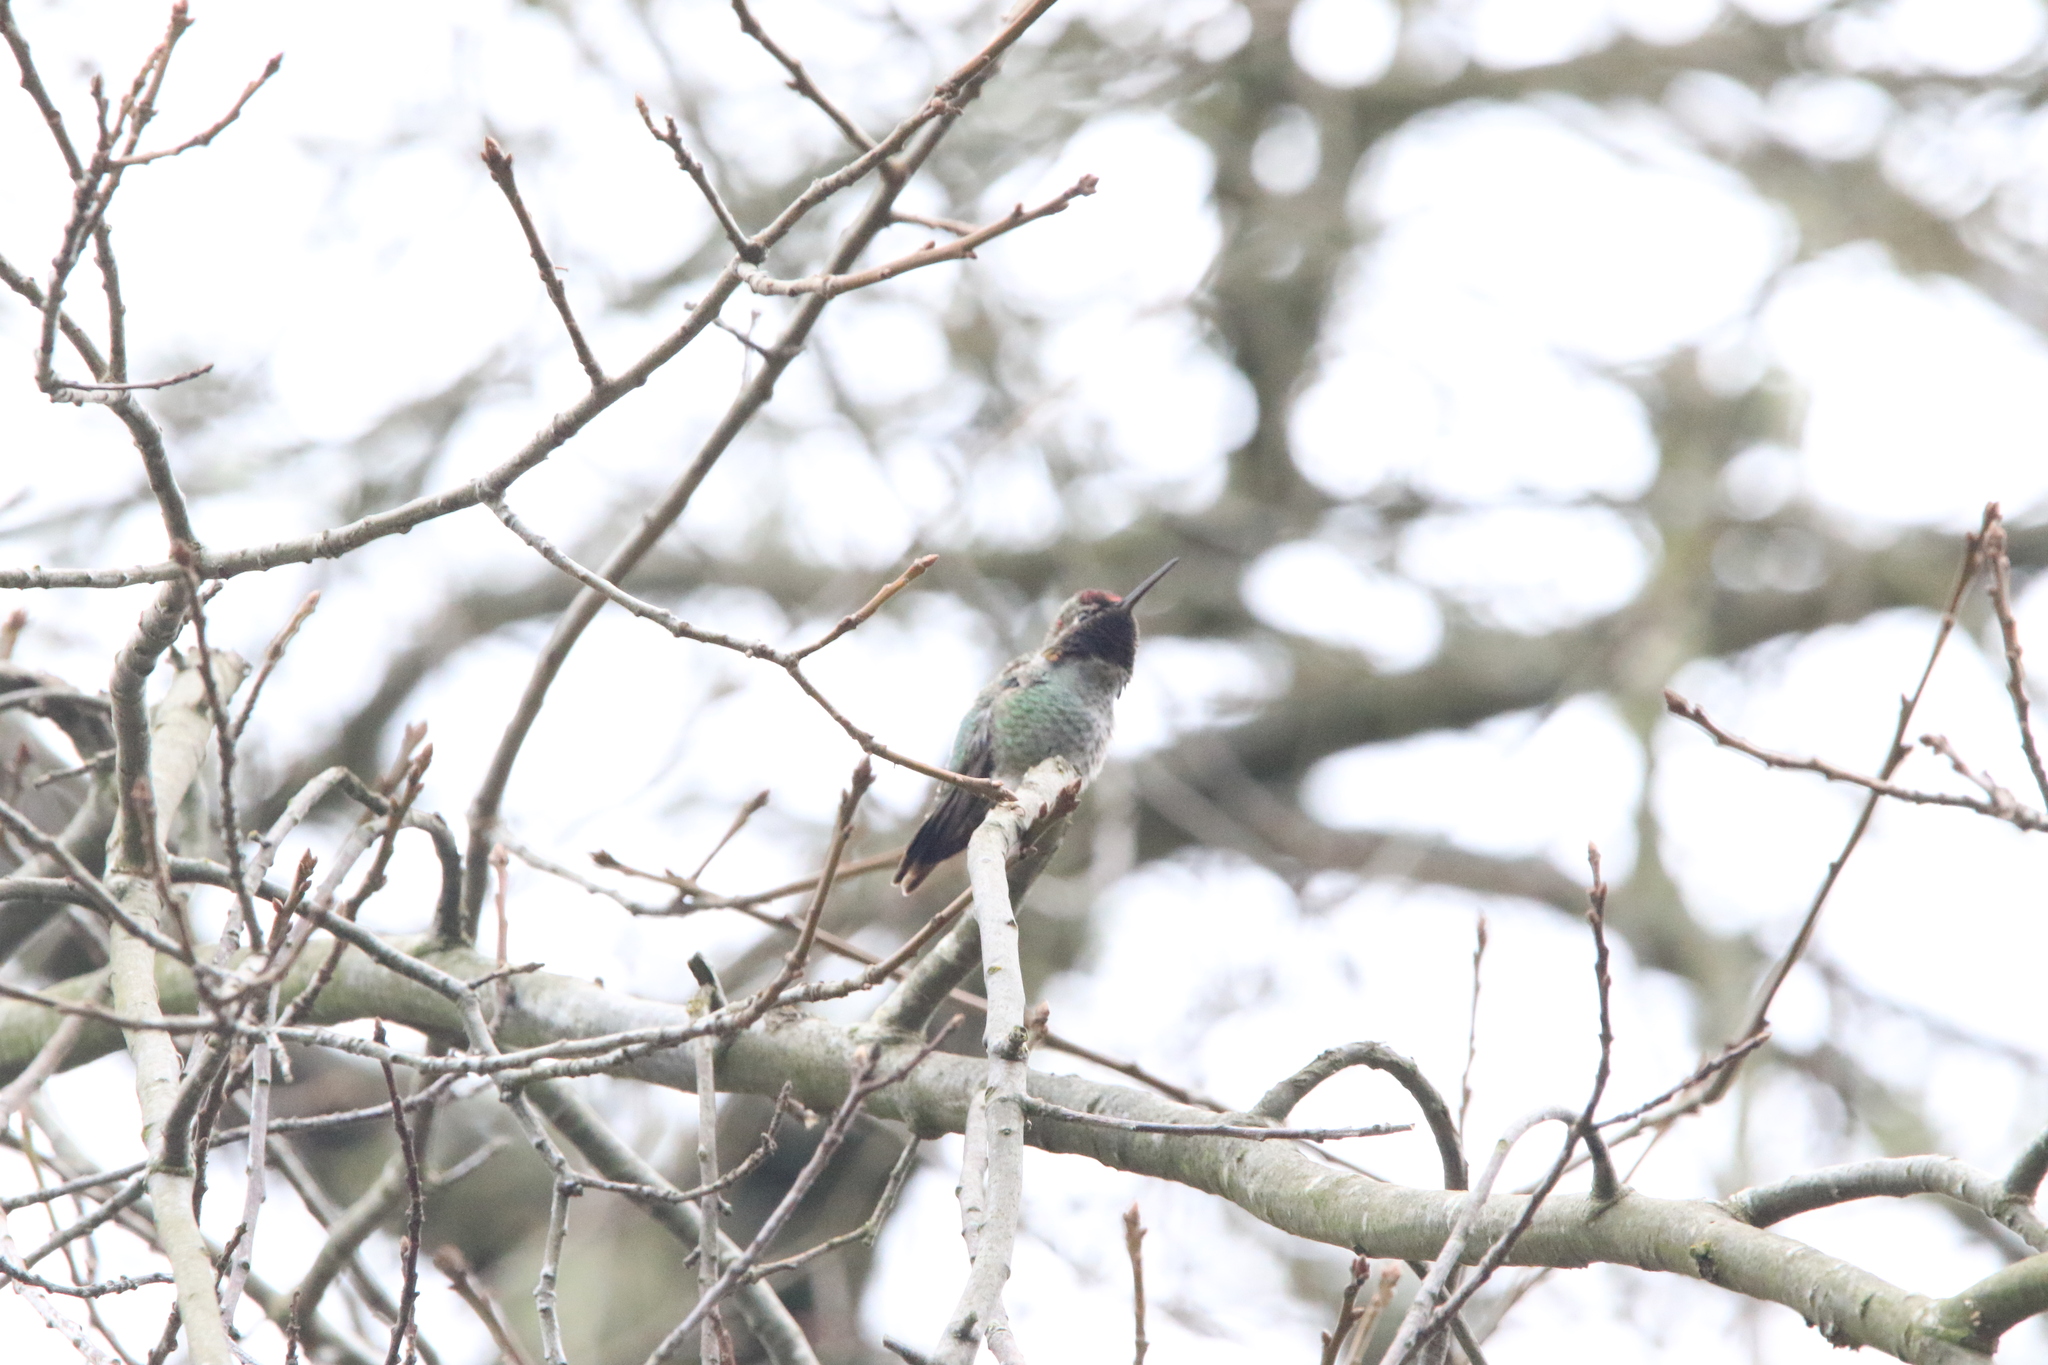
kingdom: Animalia
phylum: Chordata
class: Aves
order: Apodiformes
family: Trochilidae
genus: Calypte
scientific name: Calypte anna
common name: Anna's hummingbird
